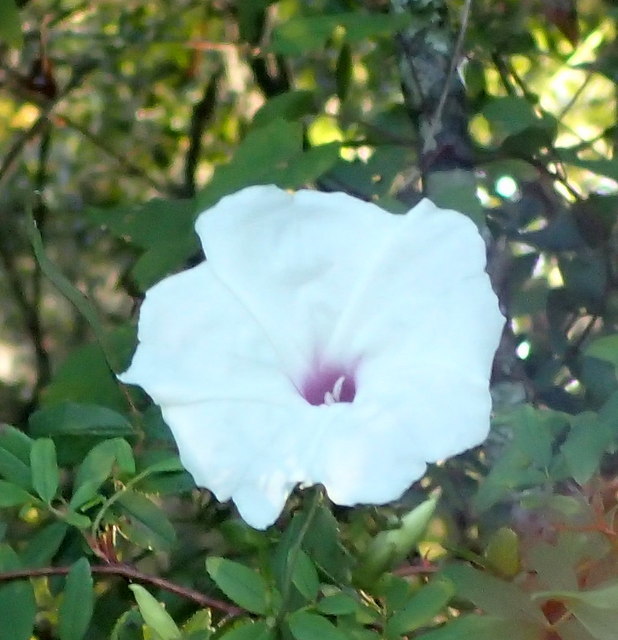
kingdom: Plantae
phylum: Tracheophyta
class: Magnoliopsida
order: Solanales
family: Convolvulaceae
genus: Ipomoea
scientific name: Ipomoea pandurata
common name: Man-of-the-earth
